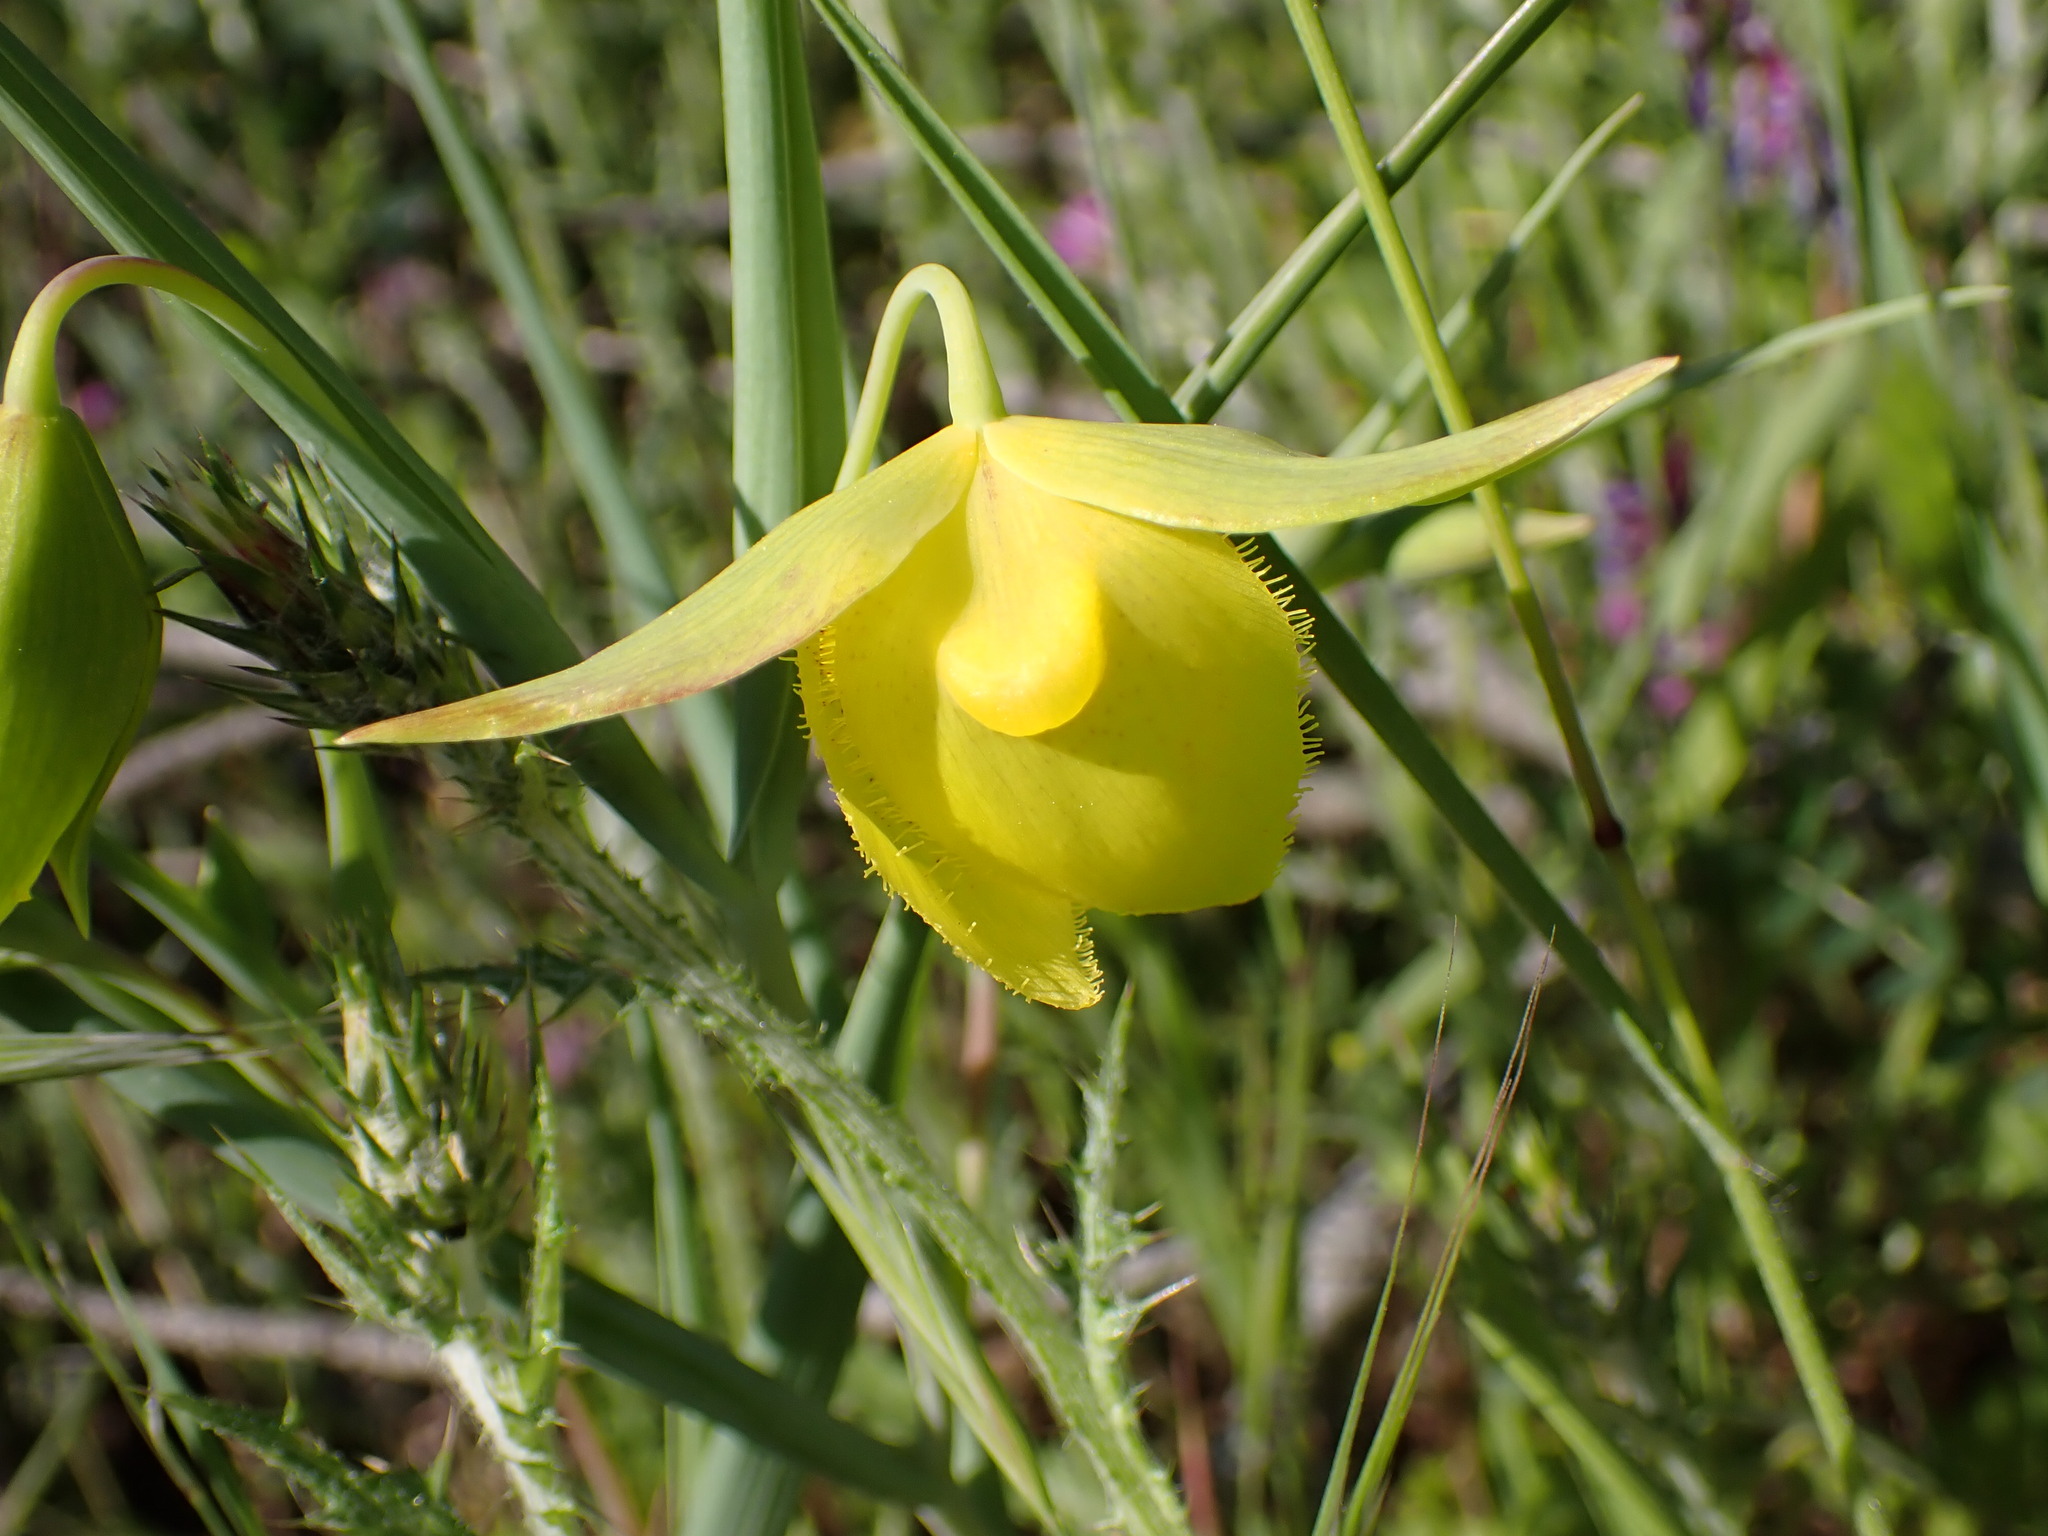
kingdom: Plantae
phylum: Tracheophyta
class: Liliopsida
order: Liliales
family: Liliaceae
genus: Calochortus
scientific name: Calochortus pulchellus
